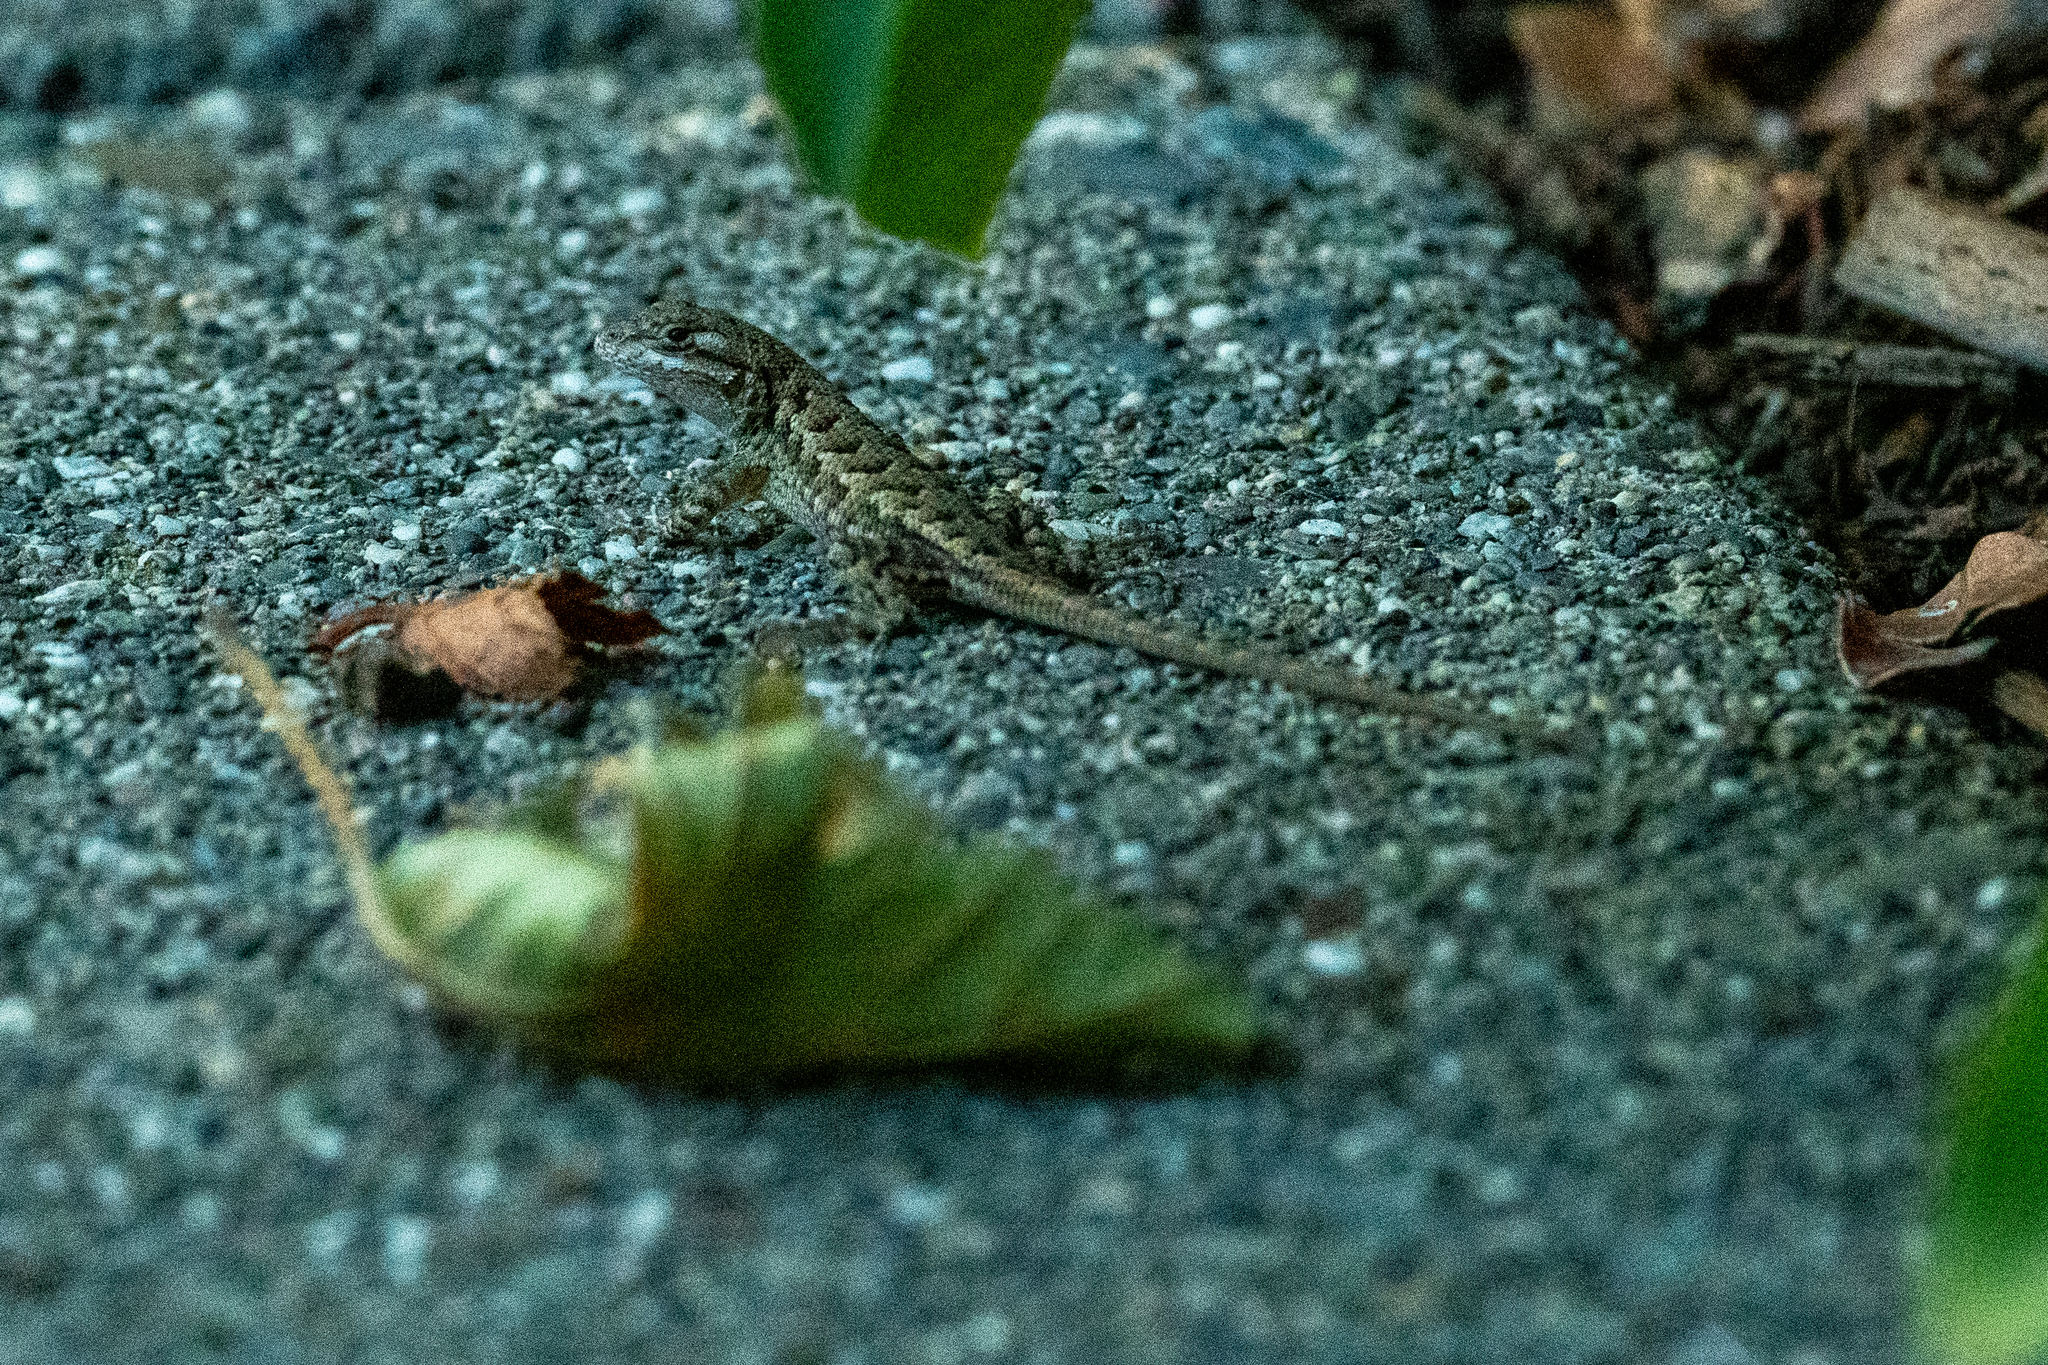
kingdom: Animalia
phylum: Chordata
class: Squamata
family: Phrynosomatidae
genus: Sceloporus
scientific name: Sceloporus occidentalis
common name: Western fence lizard
